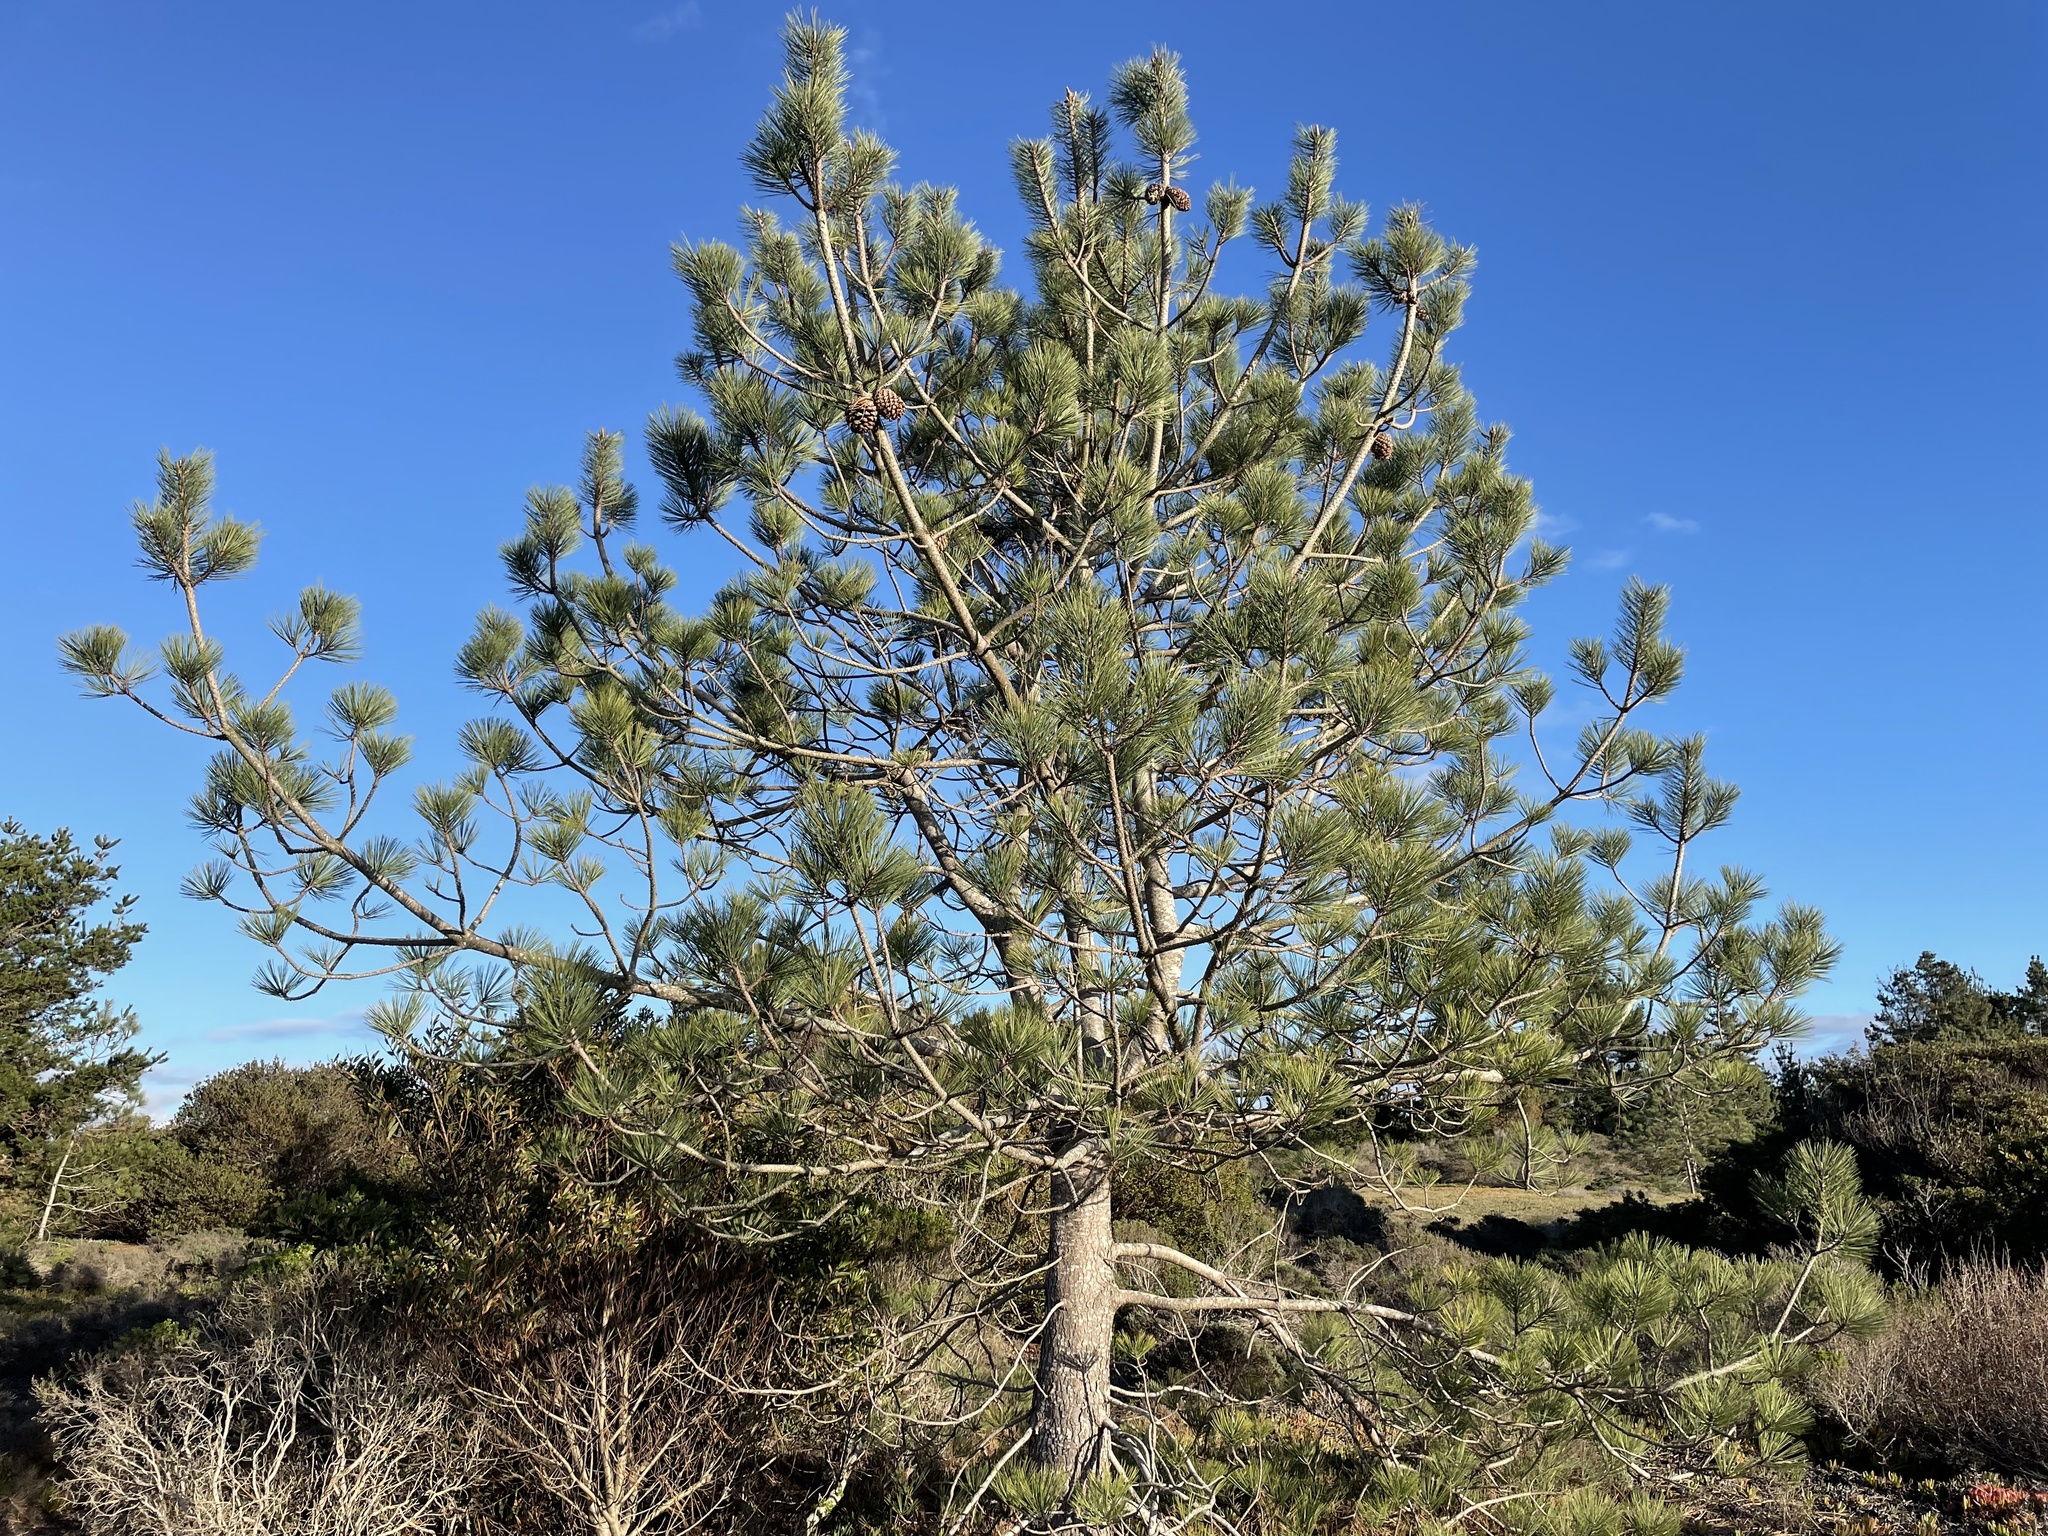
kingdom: Plantae
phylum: Tracheophyta
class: Pinopsida
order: Pinales
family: Pinaceae
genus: Pinus
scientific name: Pinus torreyana
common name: Torrey pine
